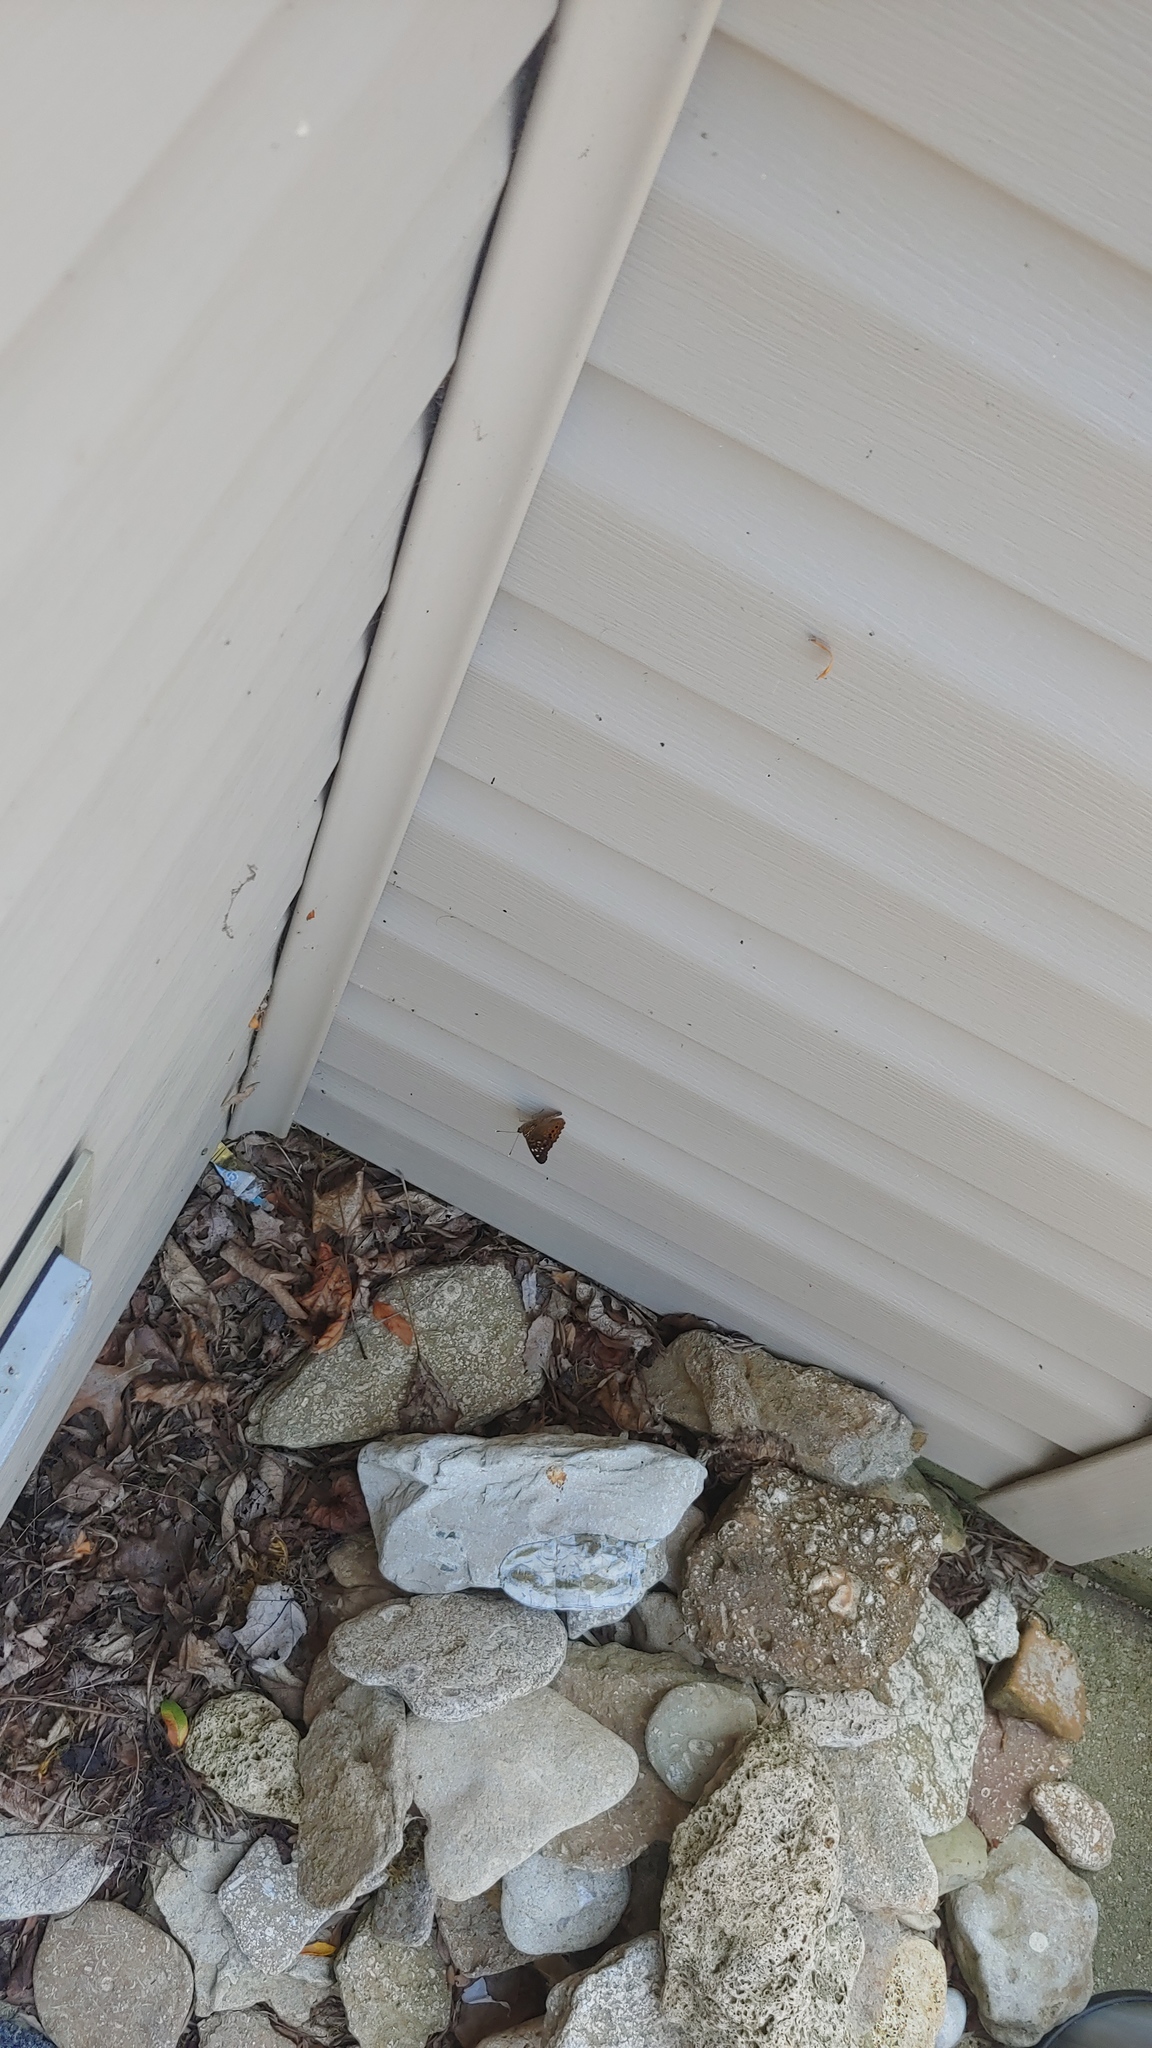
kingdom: Animalia
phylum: Arthropoda
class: Insecta
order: Lepidoptera
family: Nymphalidae
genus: Asterocampa
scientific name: Asterocampa celtis
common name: Hackberry emperor
